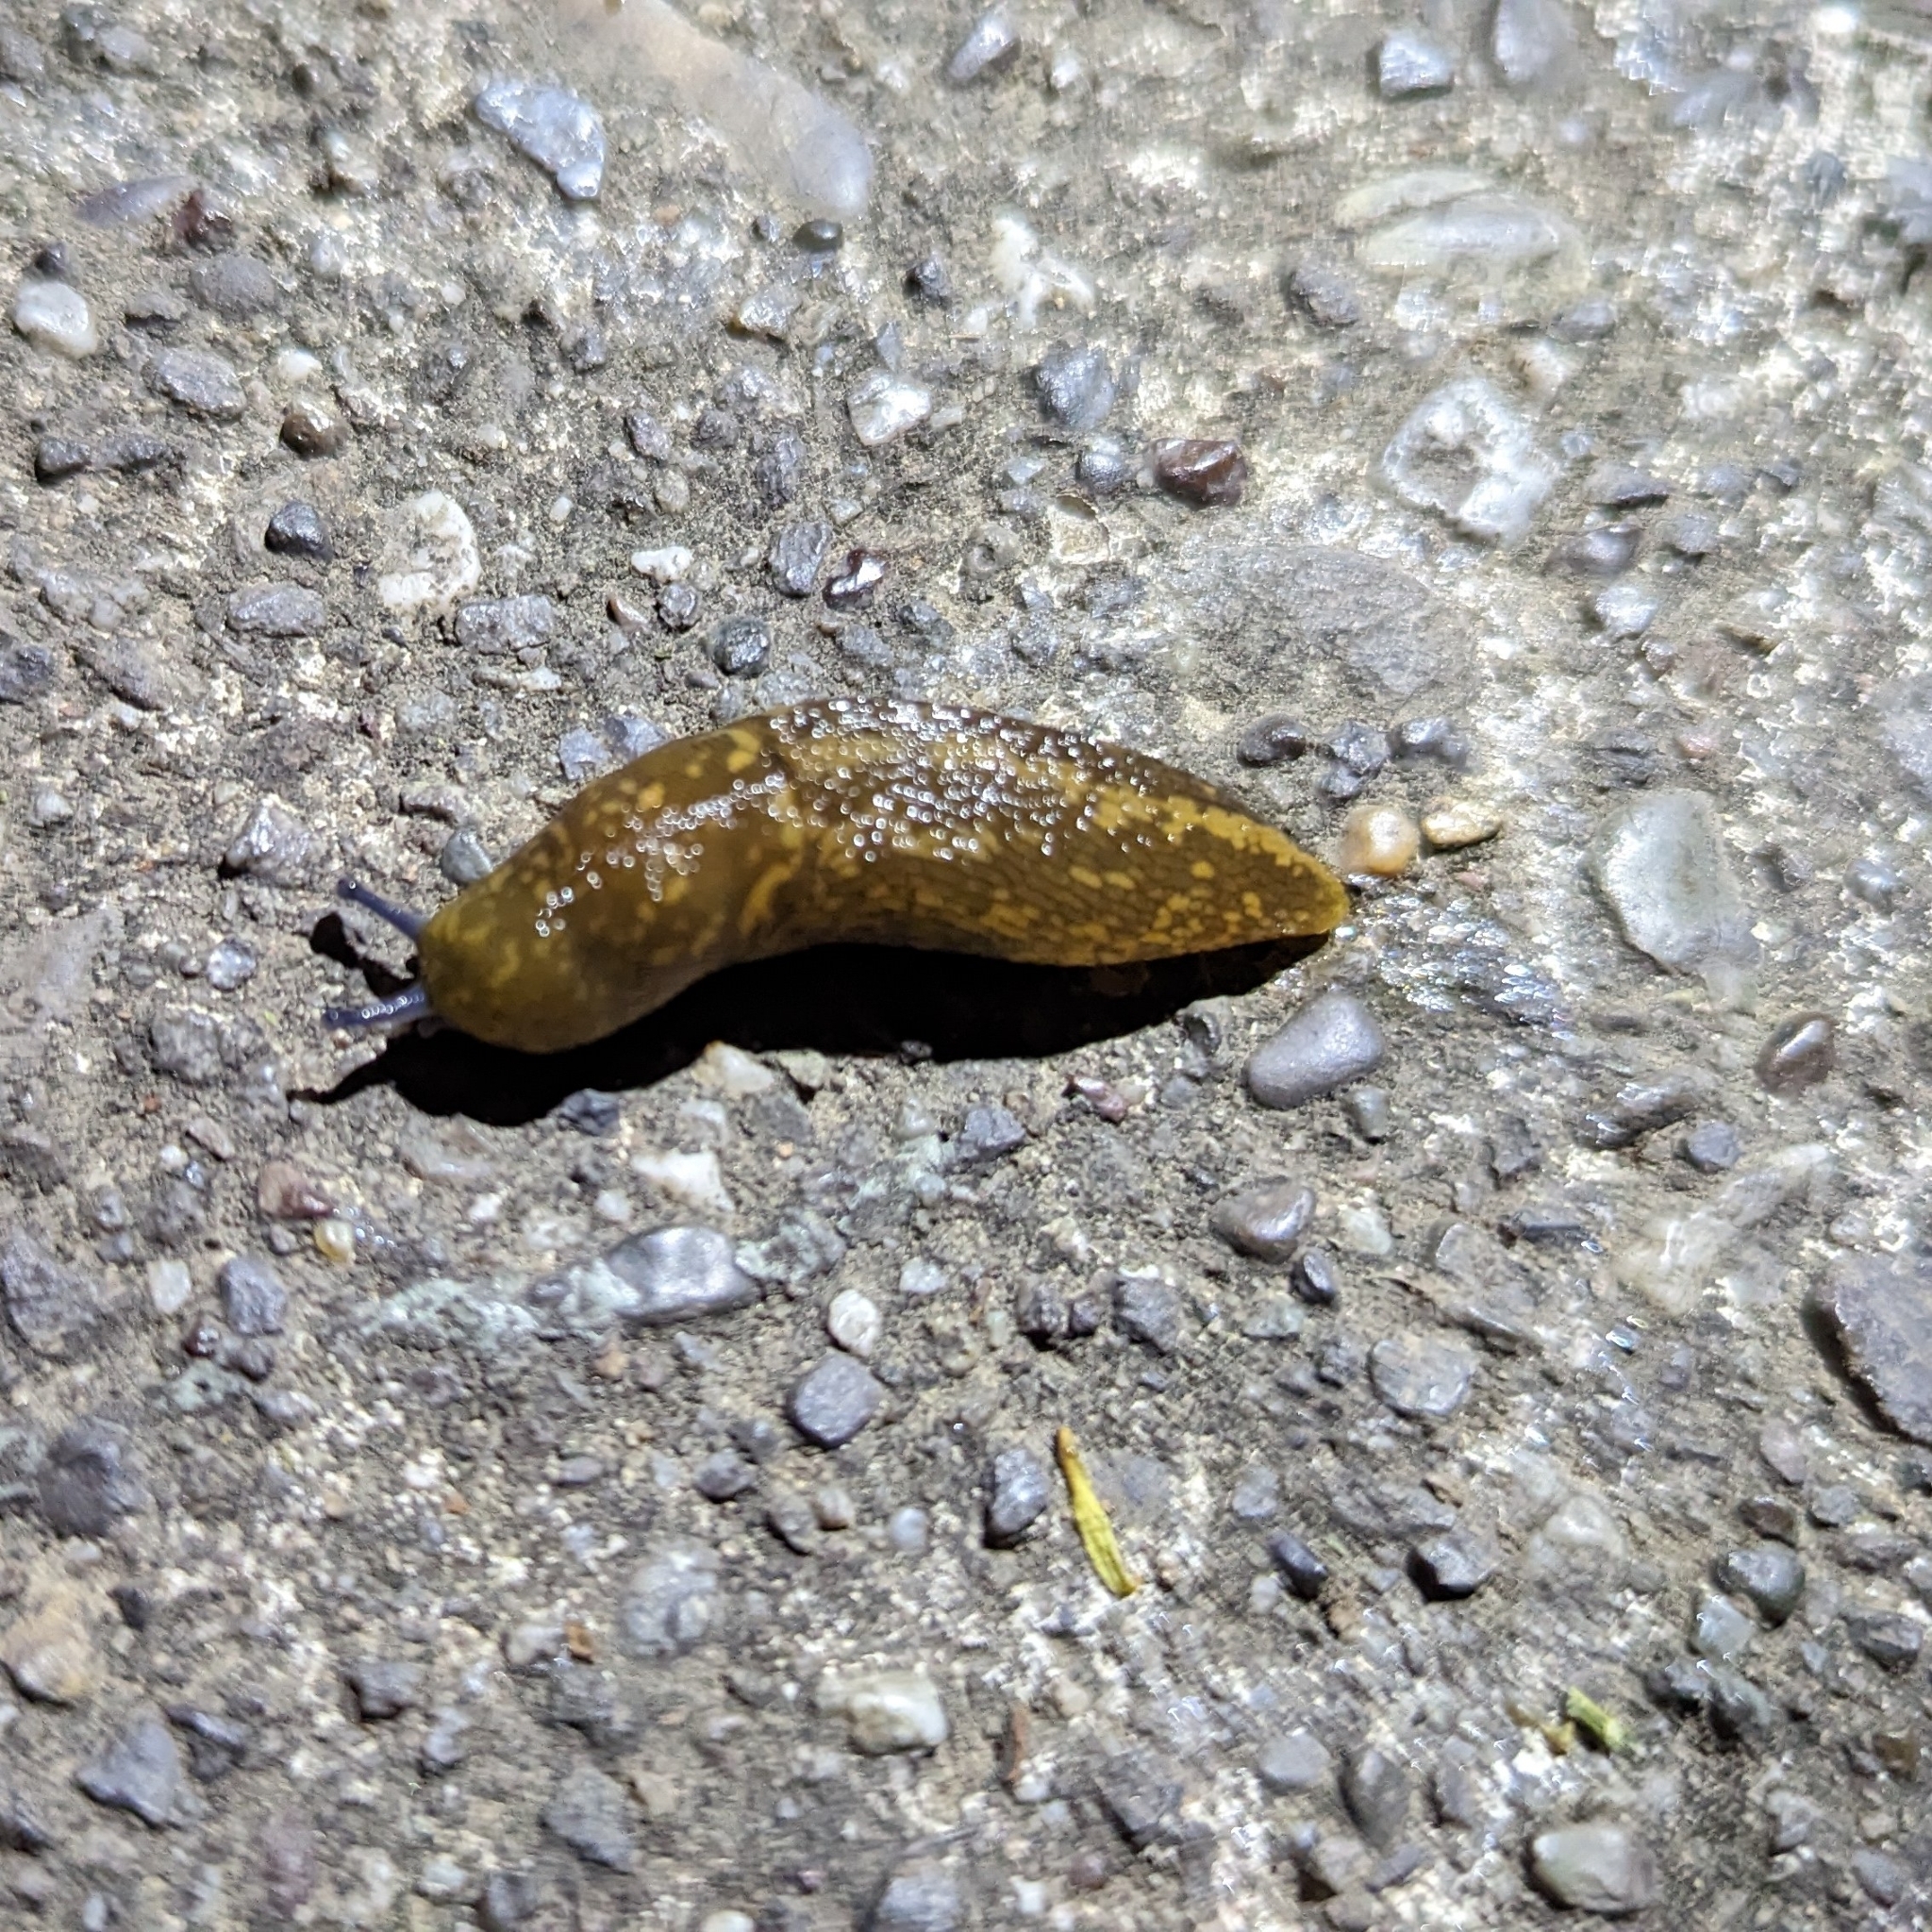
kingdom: Animalia
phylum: Mollusca
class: Gastropoda
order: Stylommatophora
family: Limacidae
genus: Limacus
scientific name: Limacus flavus
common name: Yellow gardenslug
